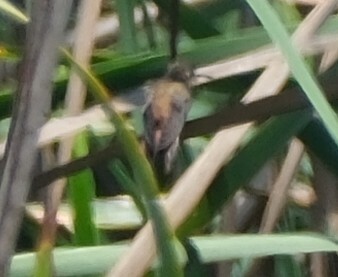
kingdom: Animalia
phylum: Chordata
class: Aves
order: Apodiformes
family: Trochilidae
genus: Amazilis
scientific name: Amazilis amazilia
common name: Amazilia hummingbird
